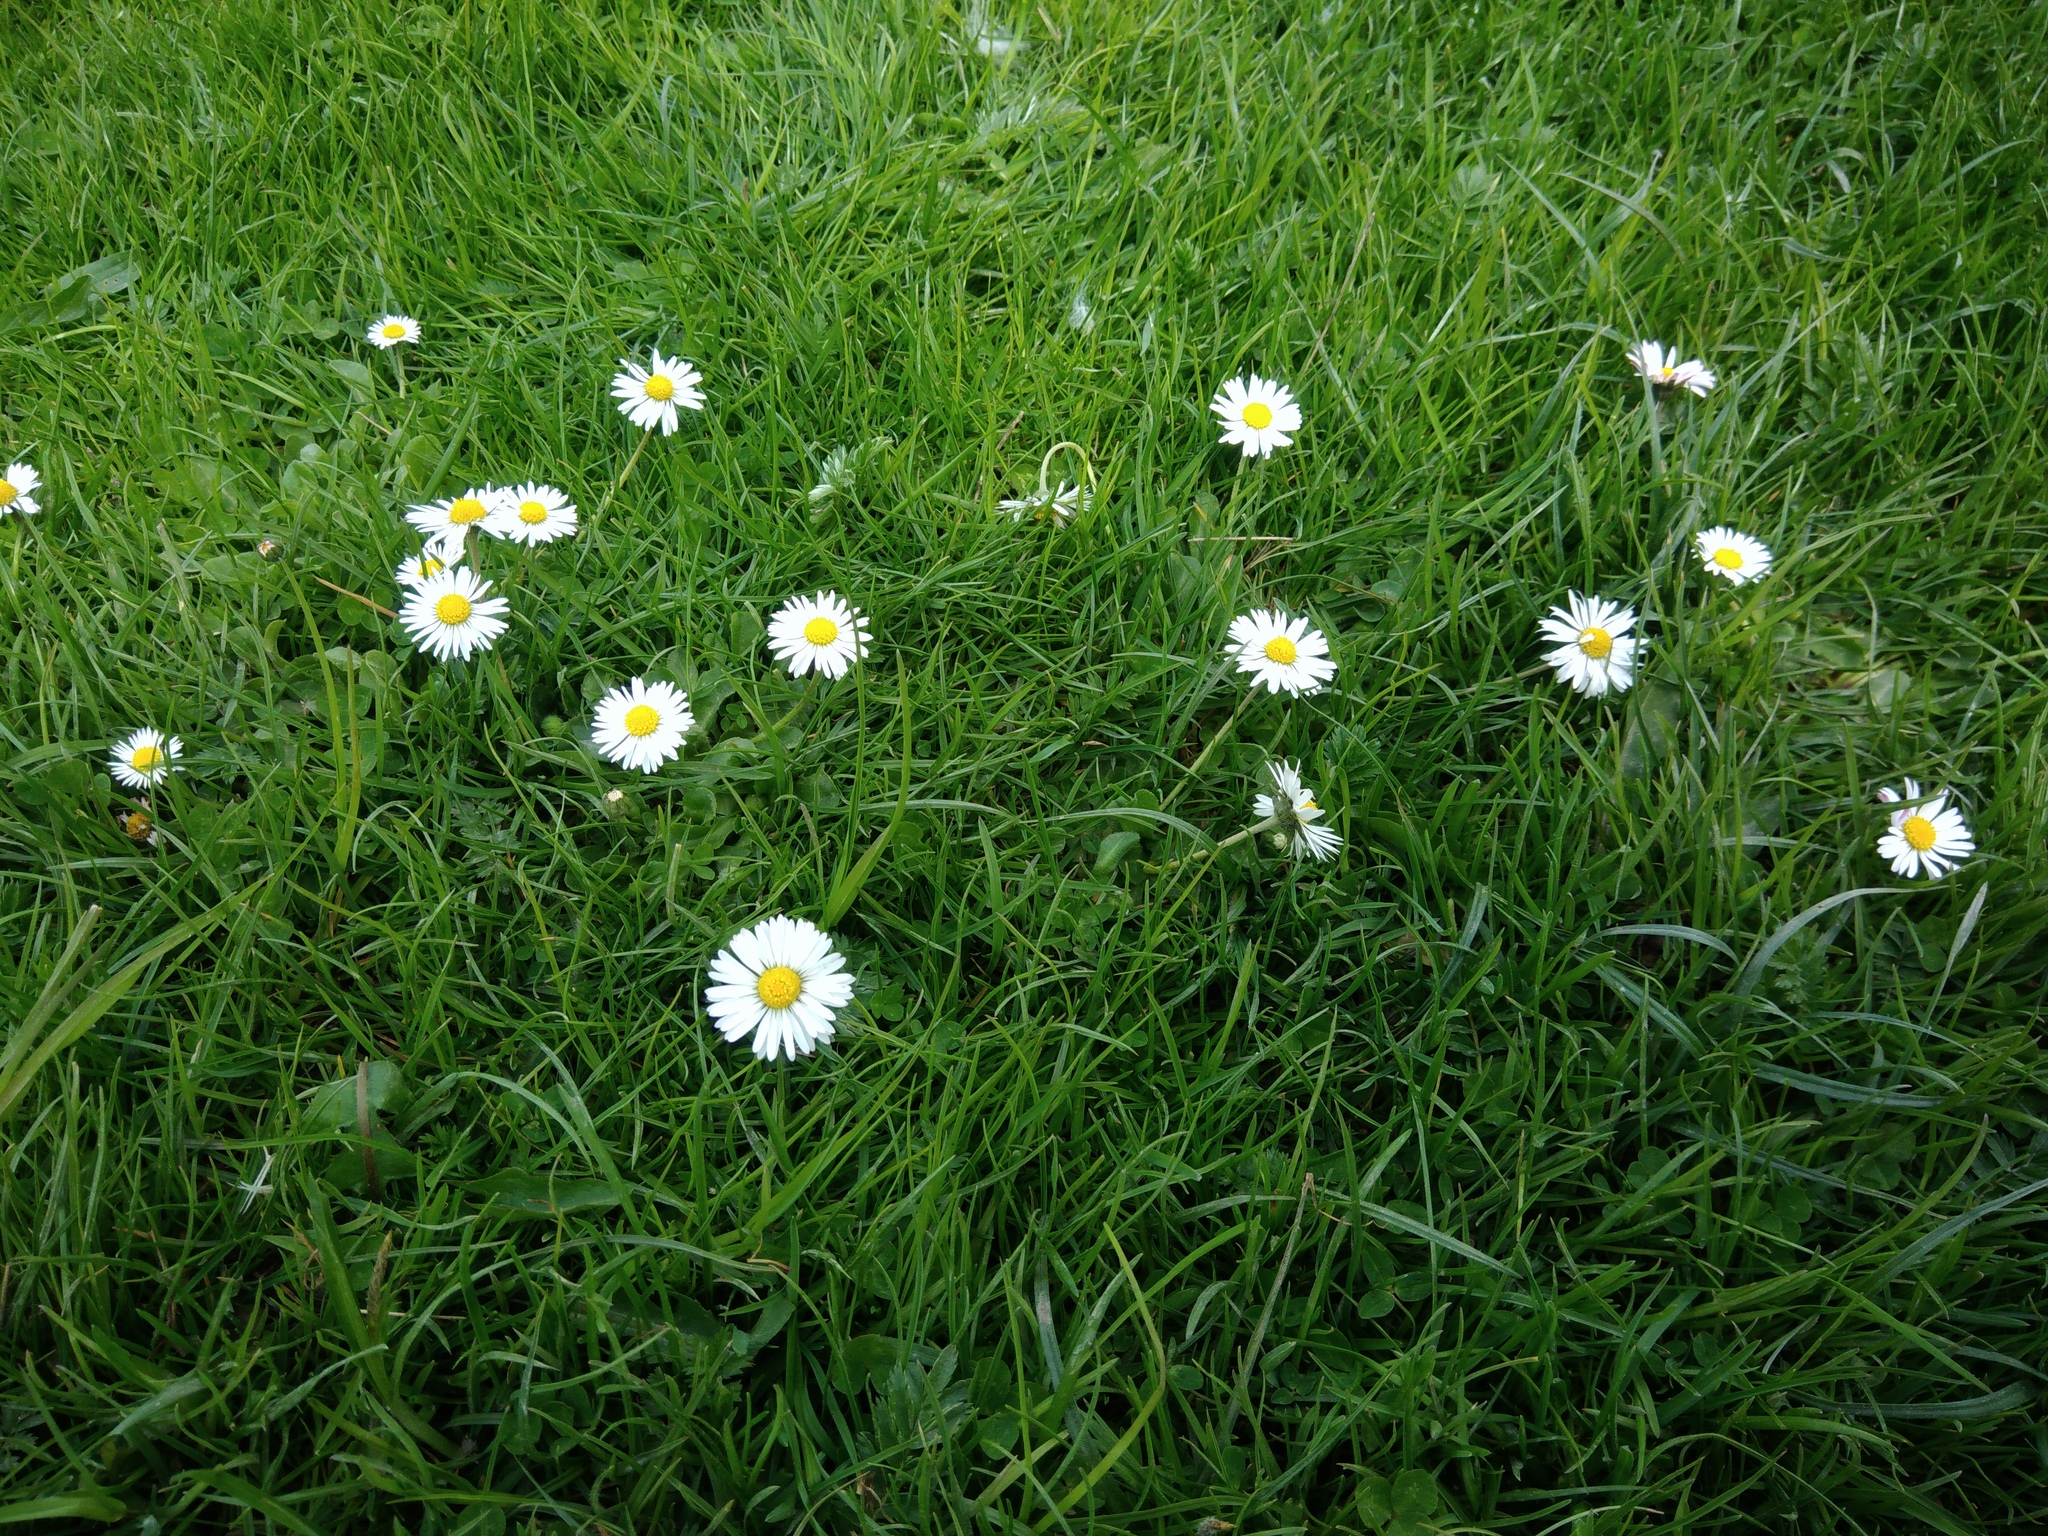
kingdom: Plantae
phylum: Tracheophyta
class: Magnoliopsida
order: Asterales
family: Asteraceae
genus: Bellis
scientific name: Bellis perennis
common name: Lawndaisy
